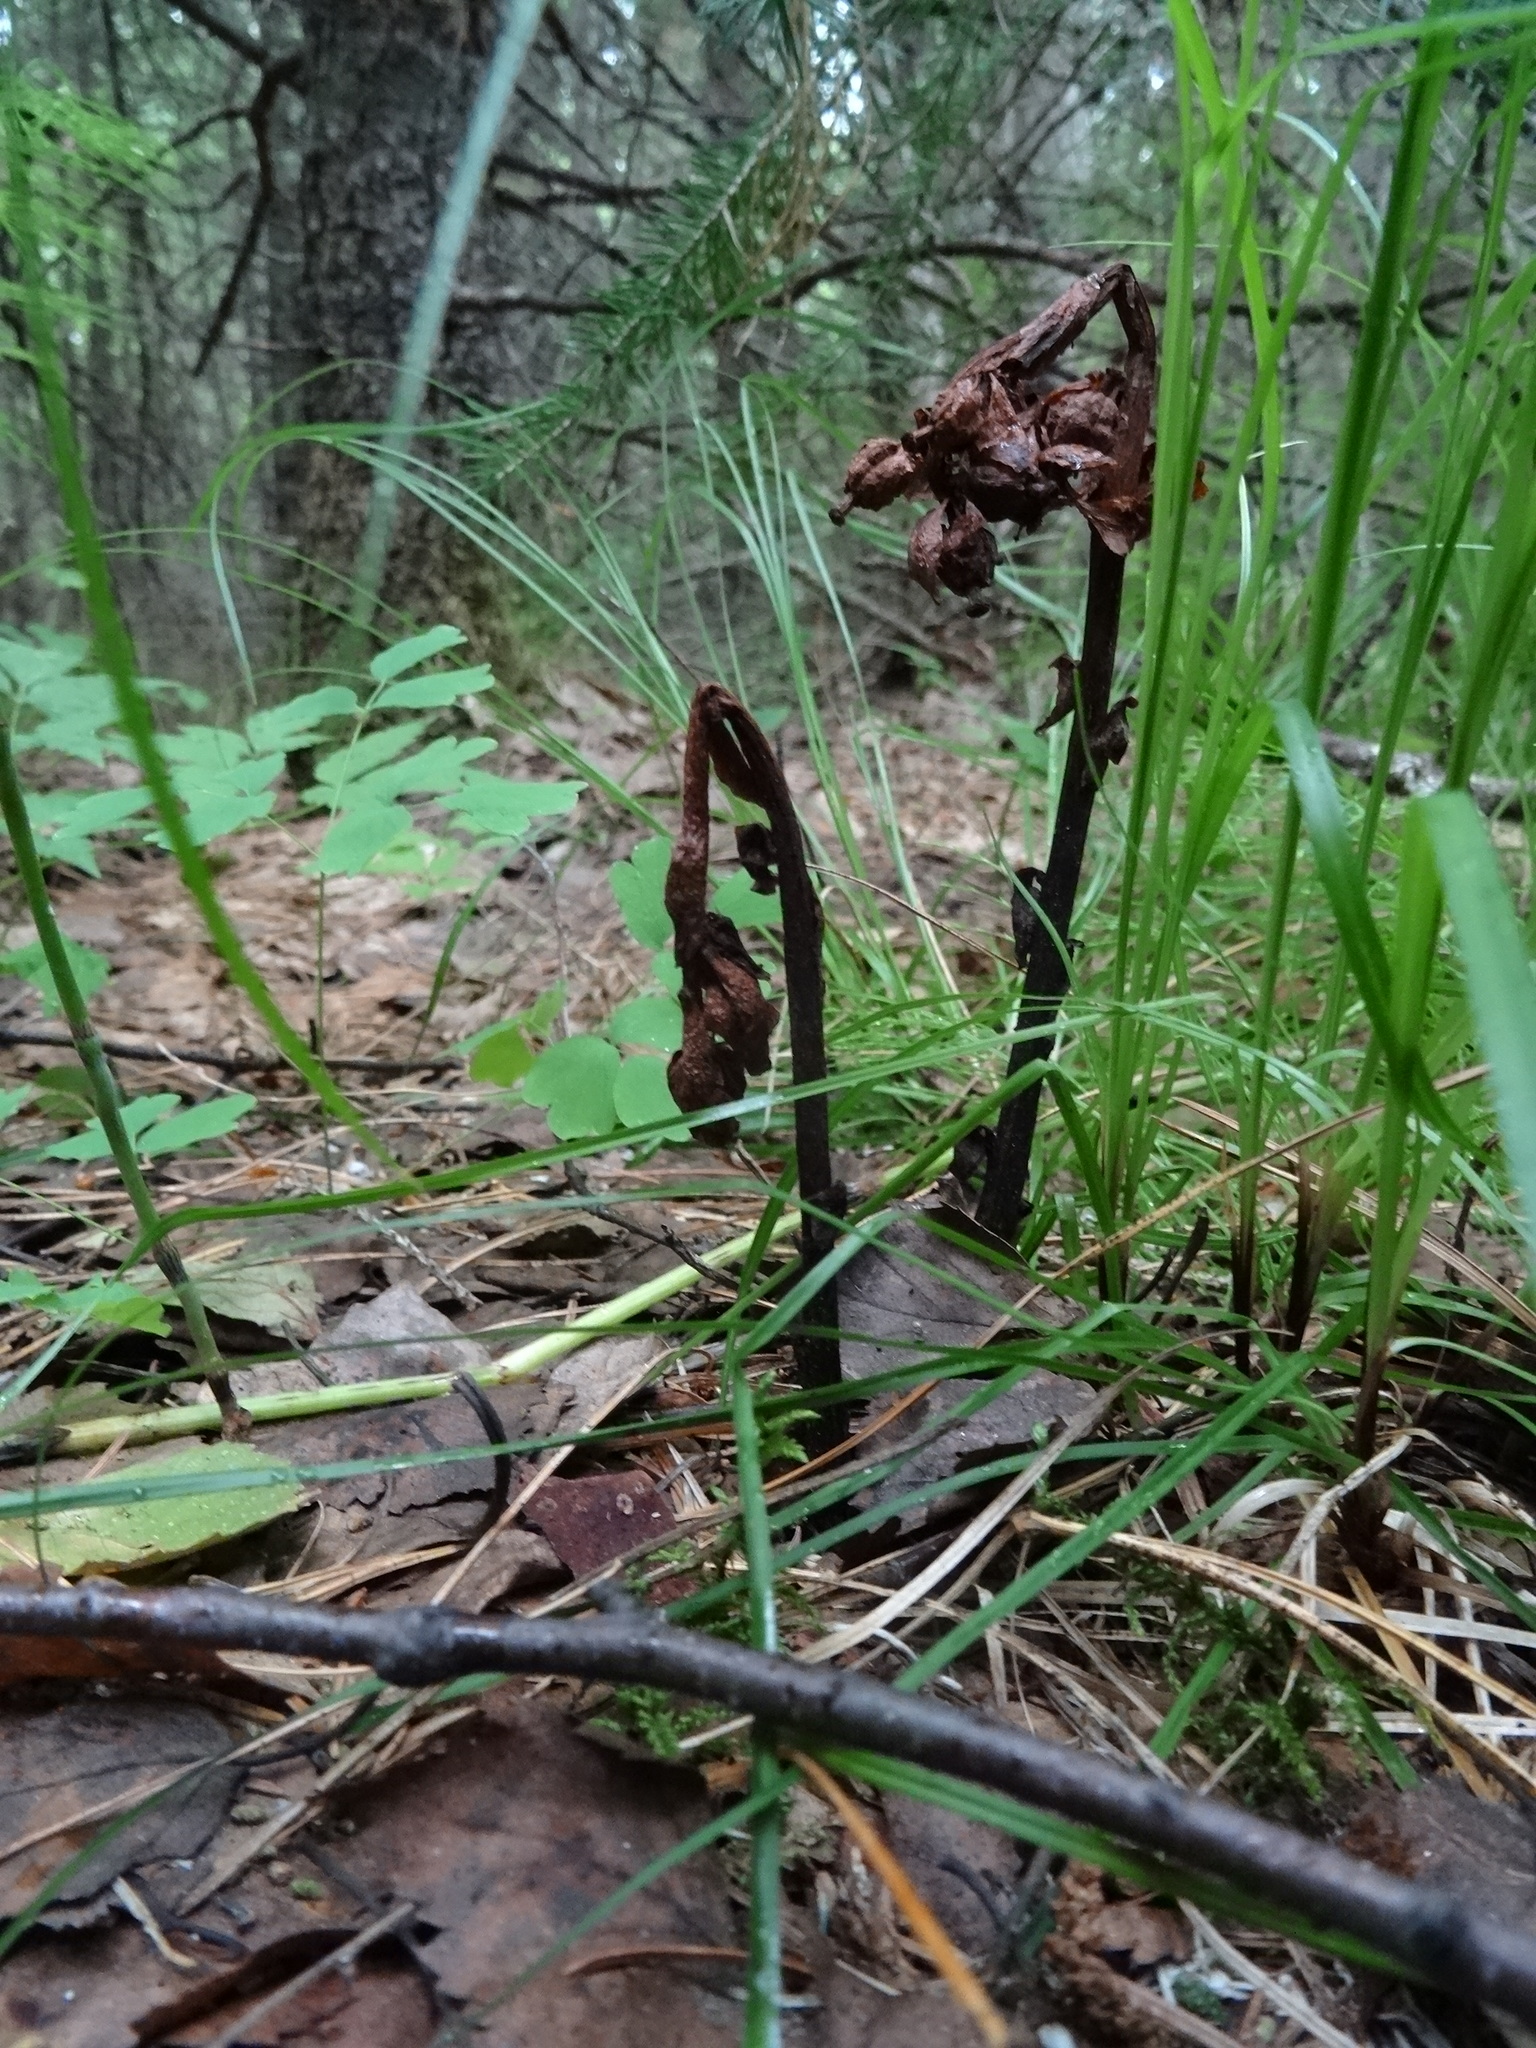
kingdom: Plantae
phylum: Tracheophyta
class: Magnoliopsida
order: Ericales
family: Ericaceae
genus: Hypopitys
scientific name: Hypopitys monotropa
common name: Yellow bird's-nest
